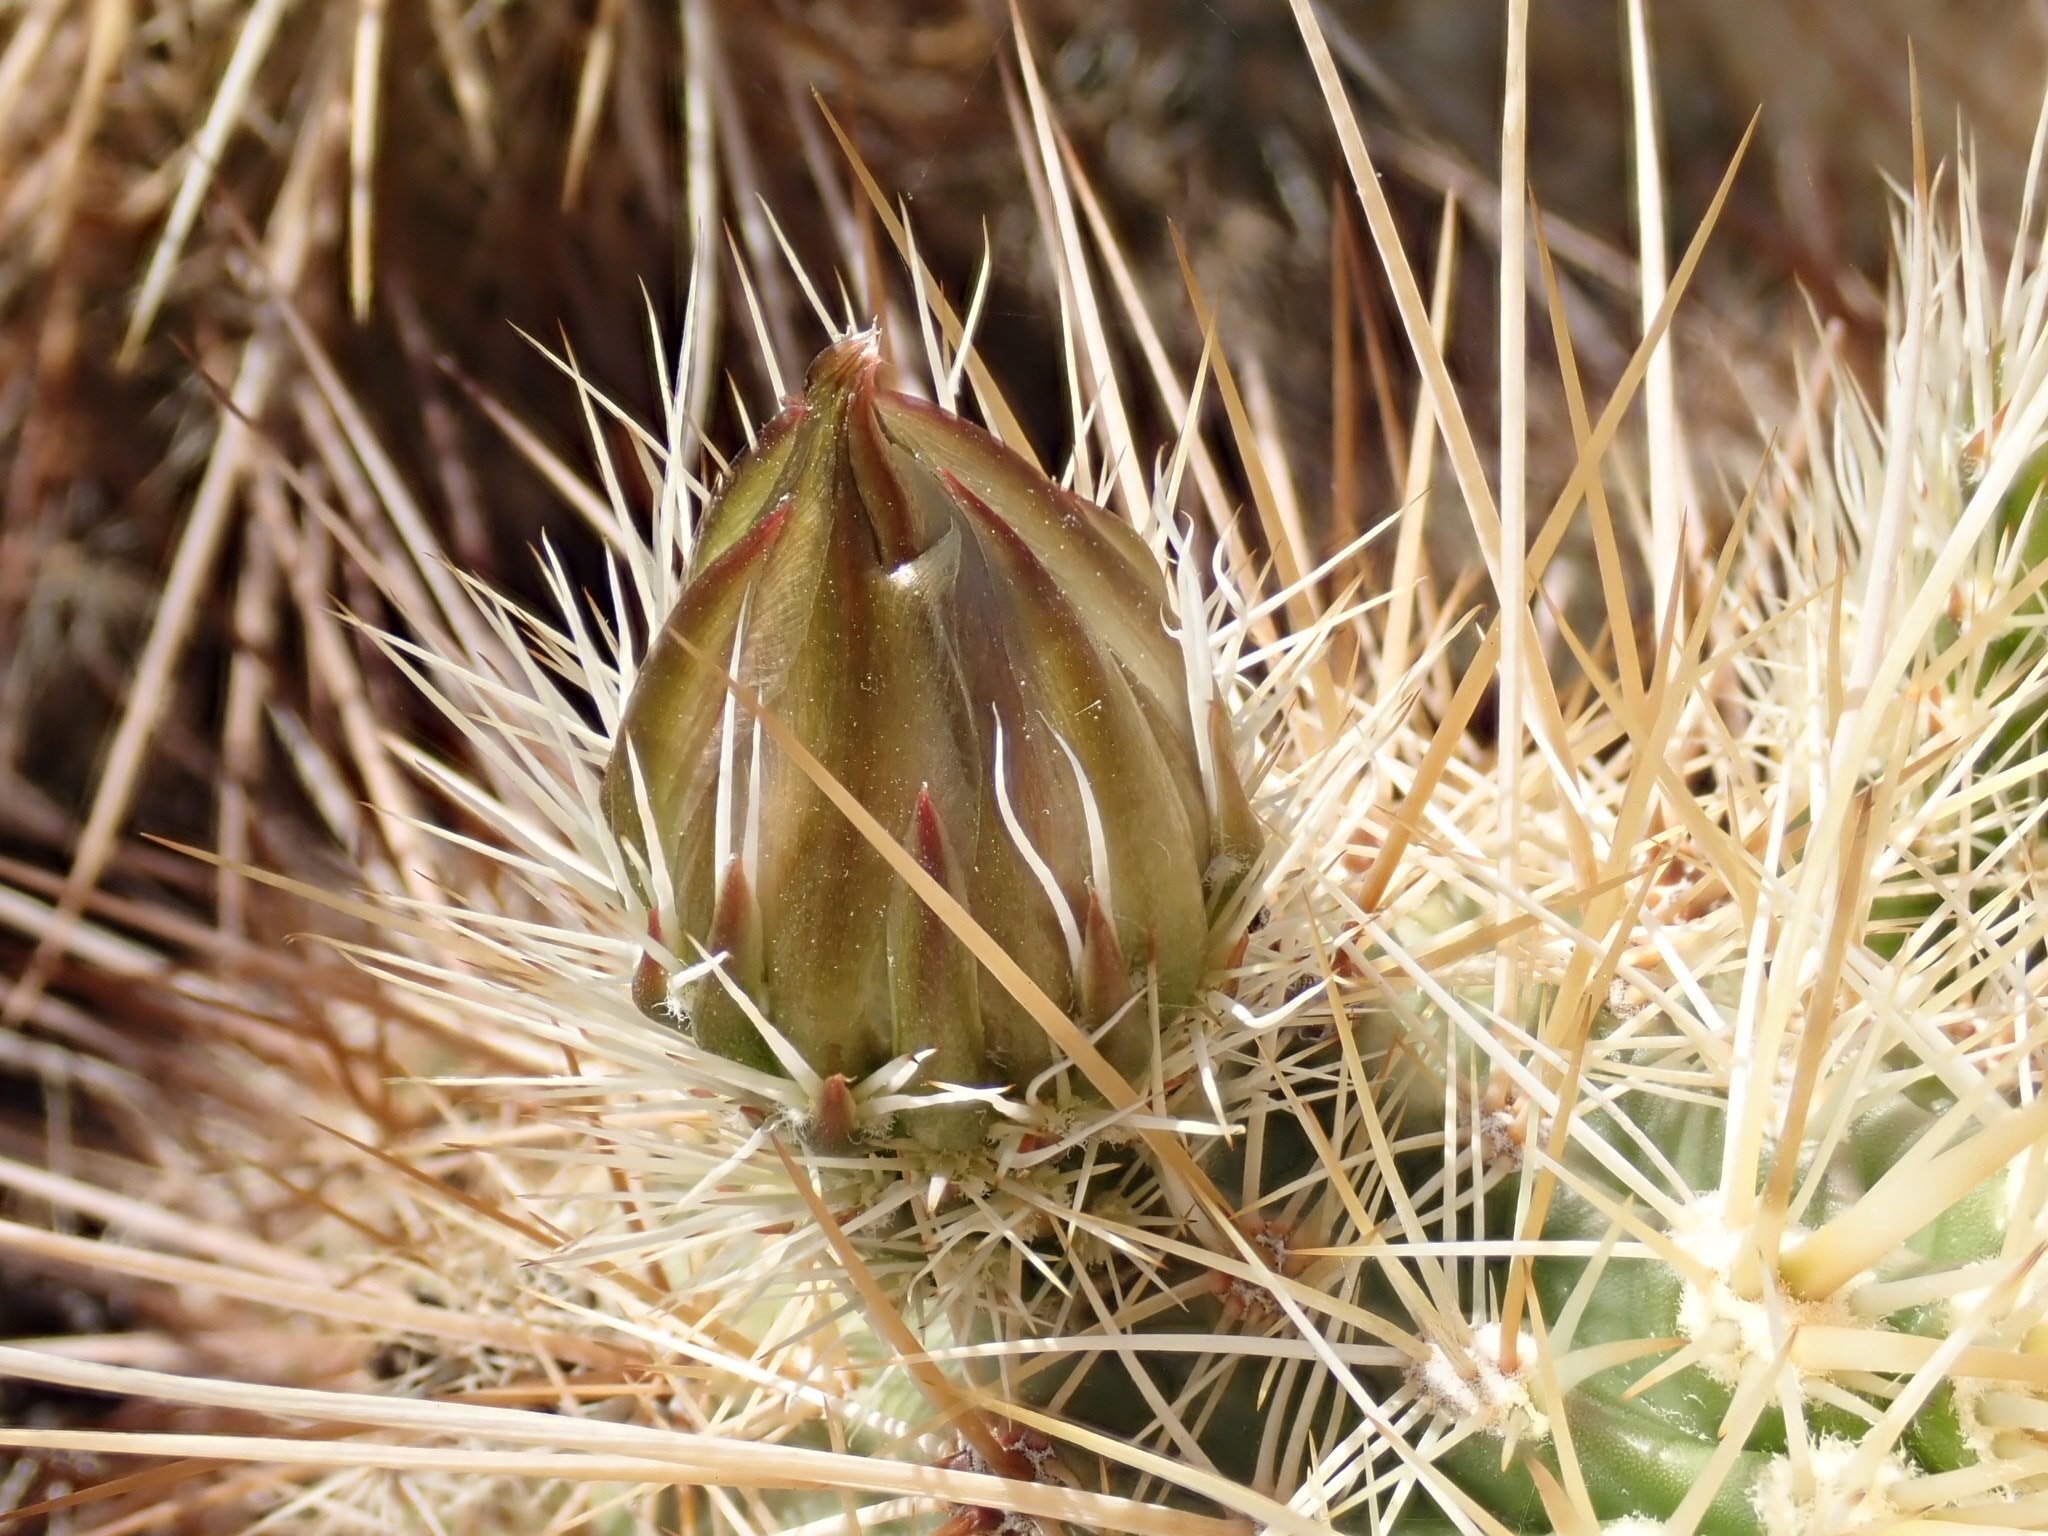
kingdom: Plantae
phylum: Tracheophyta
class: Magnoliopsida
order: Caryophyllales
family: Cactaceae
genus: Echinocereus
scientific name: Echinocereus engelmannii
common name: Engelmann's hedgehog cactus
